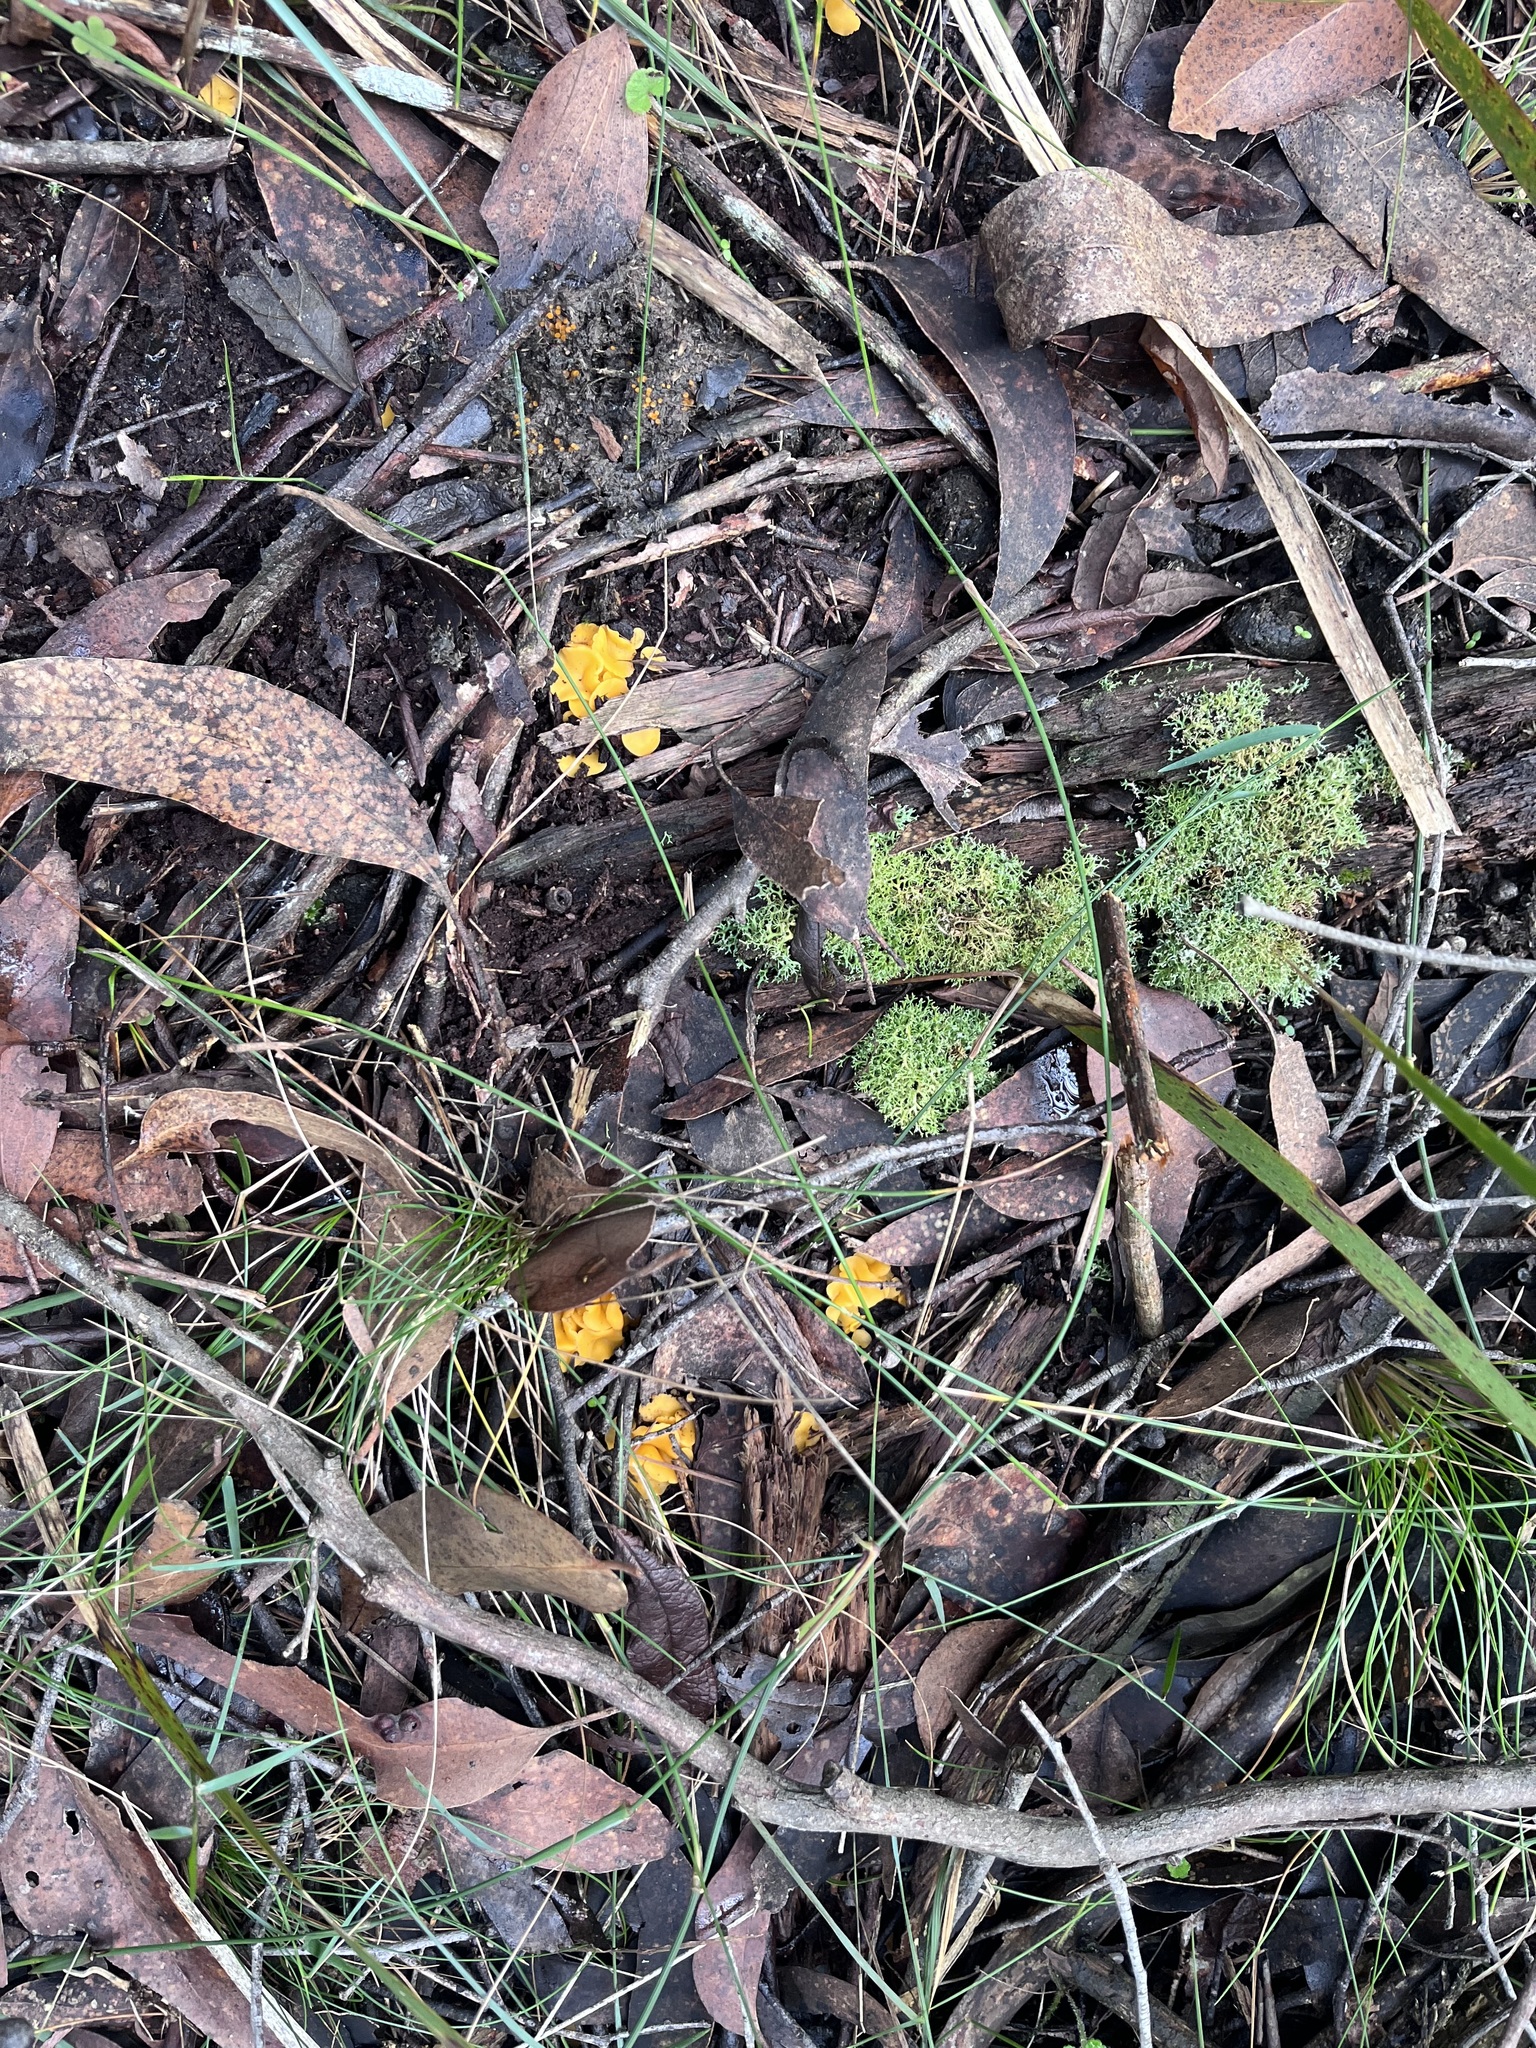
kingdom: Fungi
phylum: Ascomycota
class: Leotiomycetes
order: Helotiales
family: Helotiaceae
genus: Phaeohelotium
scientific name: Phaeohelotium baileyanum
